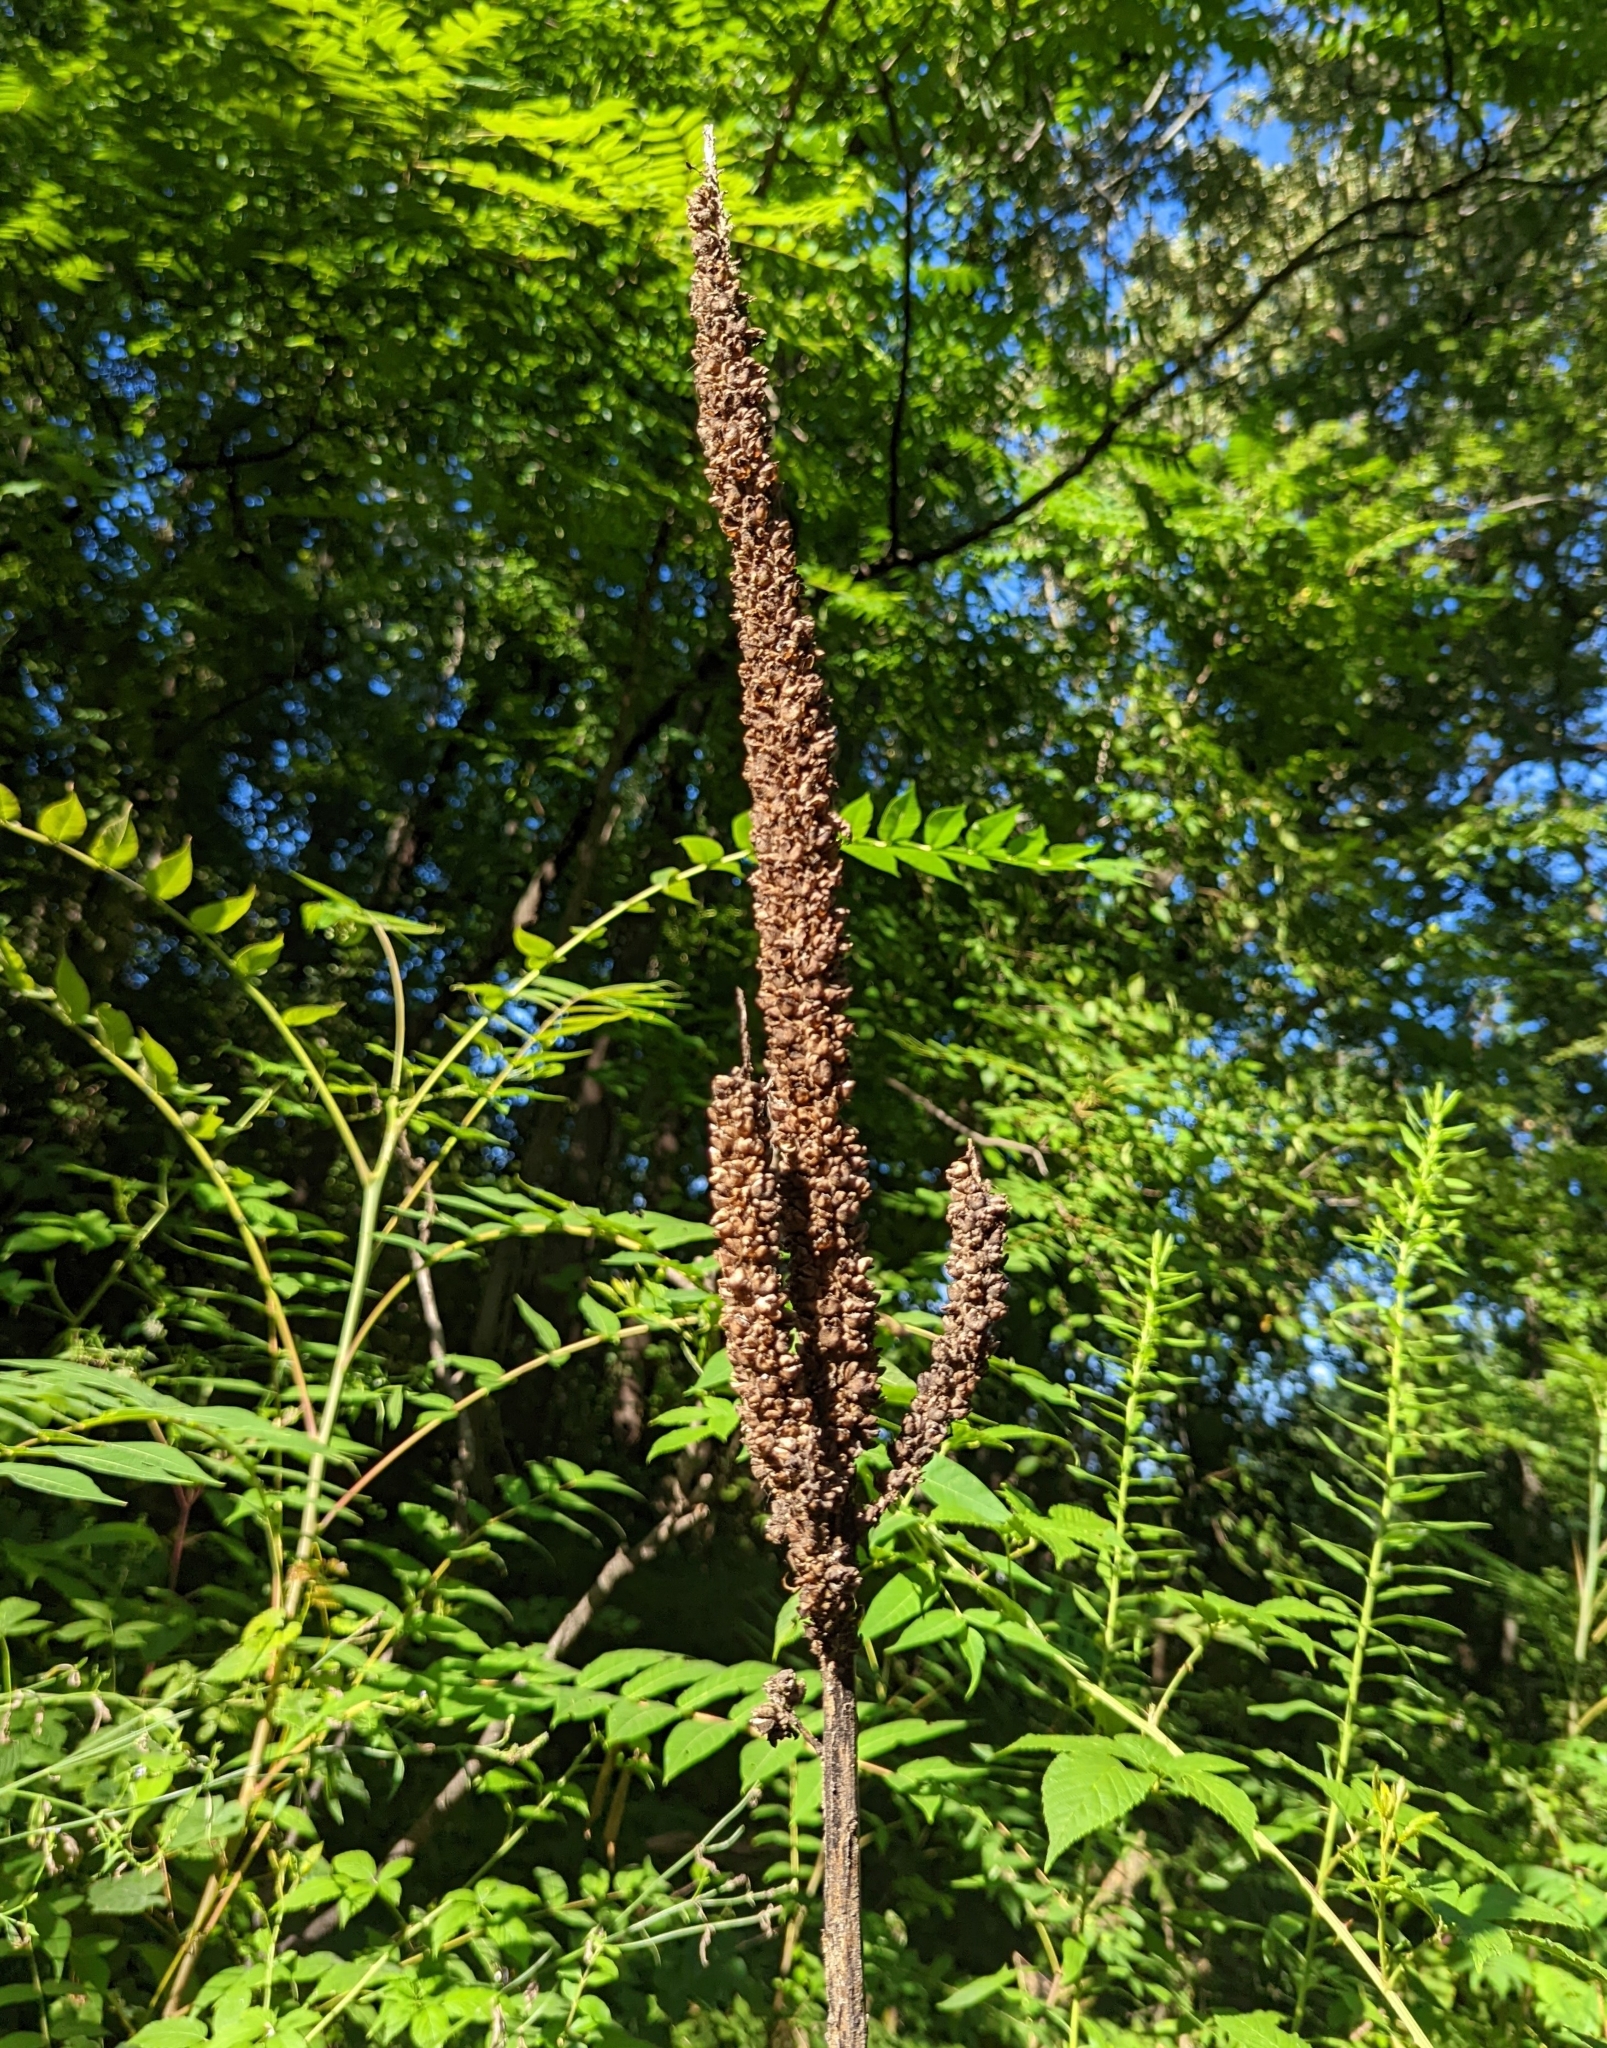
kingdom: Plantae
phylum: Tracheophyta
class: Magnoliopsida
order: Lamiales
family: Scrophulariaceae
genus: Verbascum
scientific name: Verbascum thapsus
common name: Common mullein
